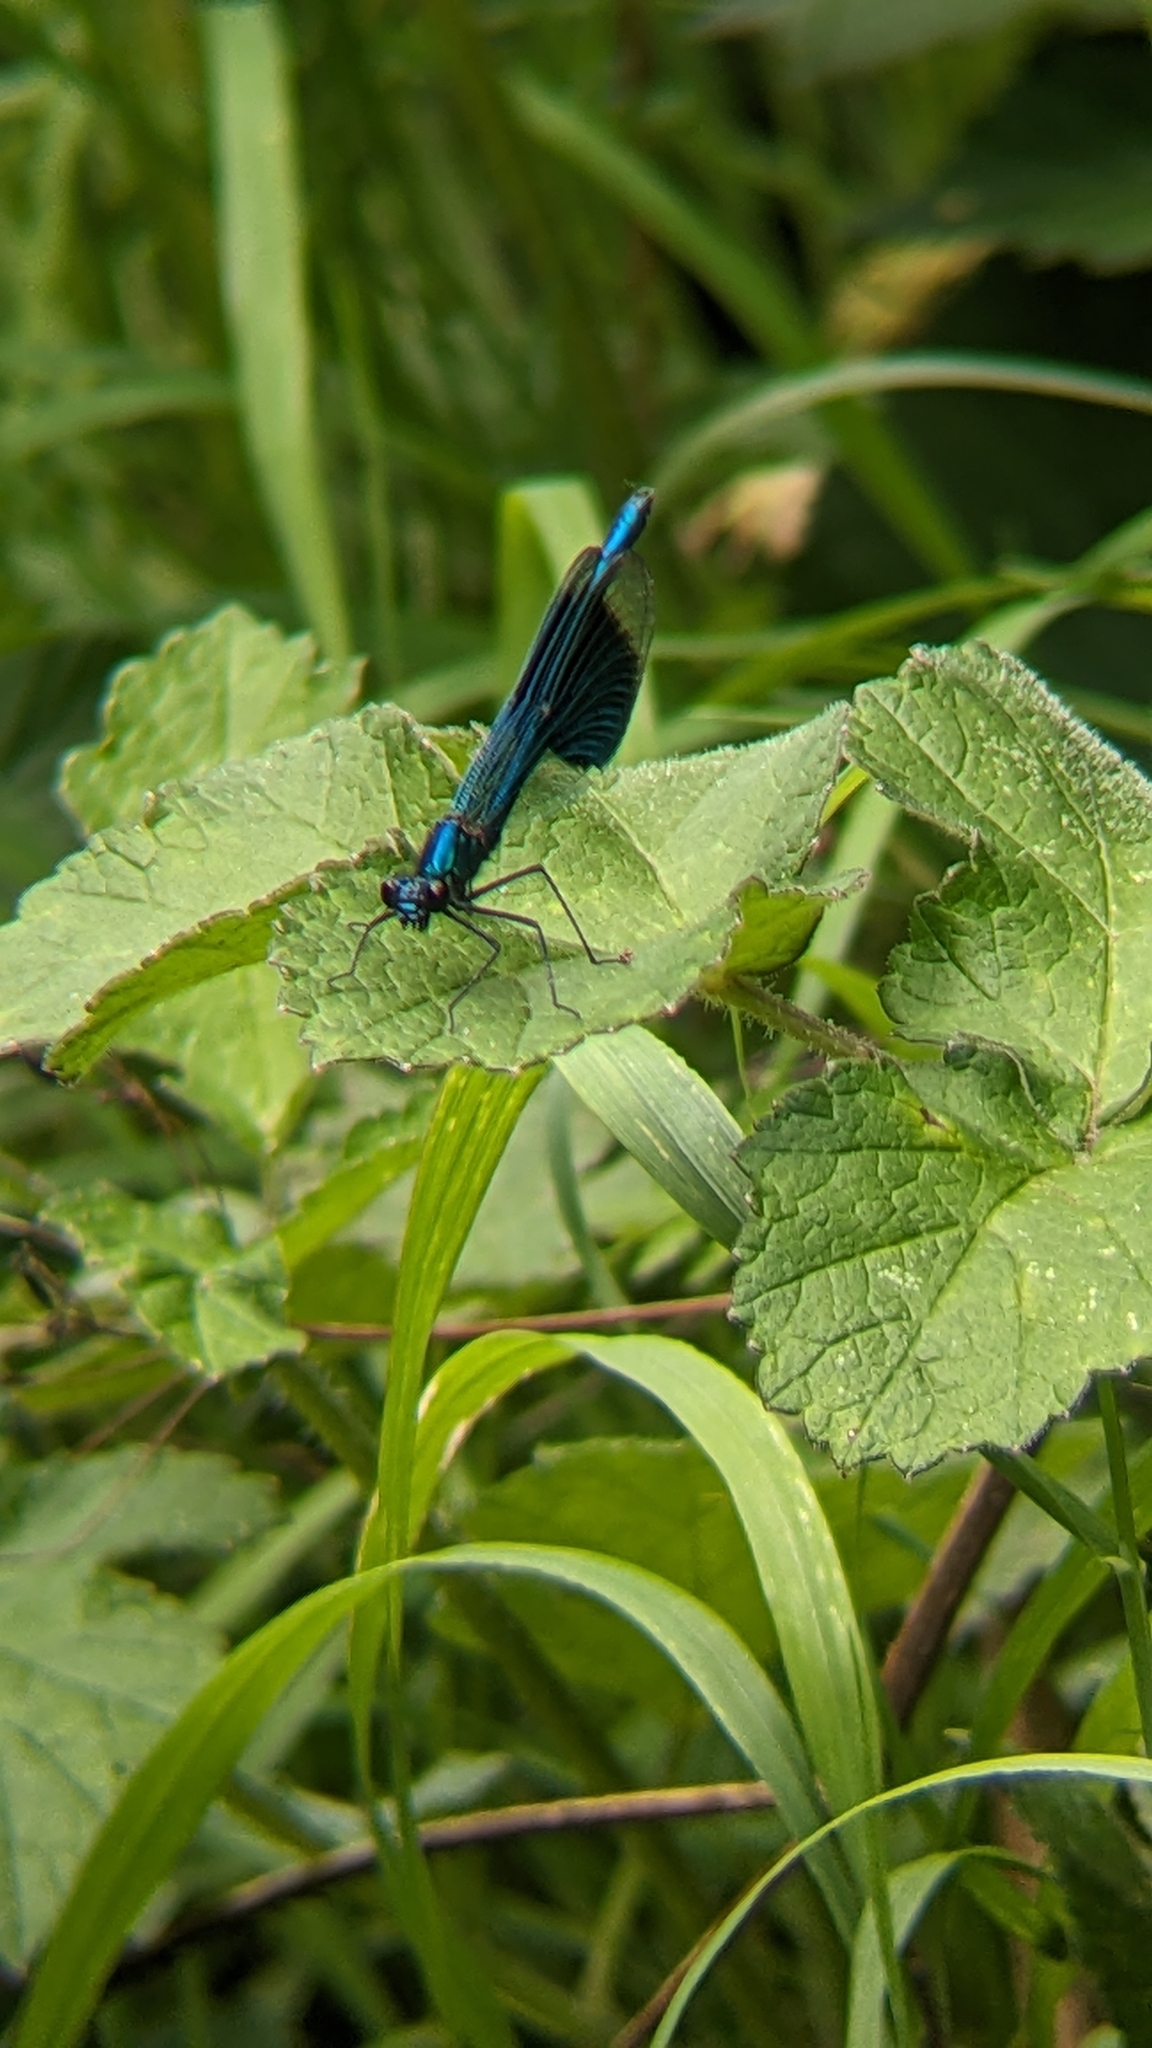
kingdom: Animalia
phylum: Arthropoda
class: Insecta
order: Odonata
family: Calopterygidae
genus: Calopteryx
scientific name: Calopteryx splendens
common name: Banded demoiselle
